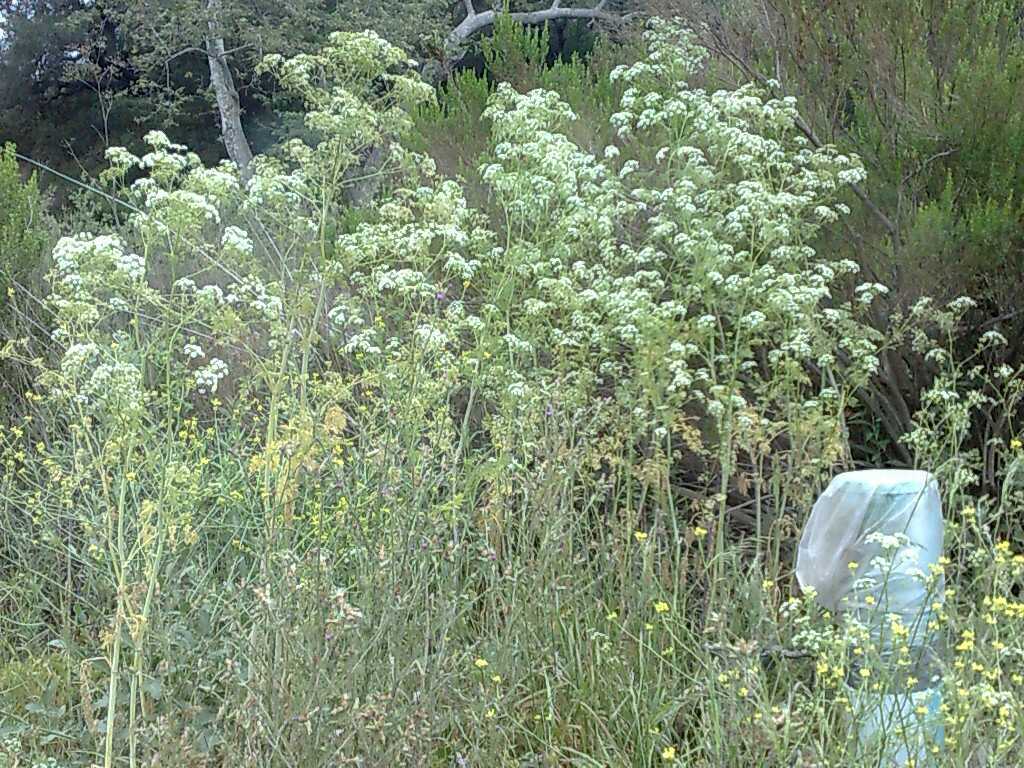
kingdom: Plantae
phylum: Tracheophyta
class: Magnoliopsida
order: Asterales
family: Asteraceae
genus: Baccharis
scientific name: Baccharis pilularis
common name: Coyotebrush
